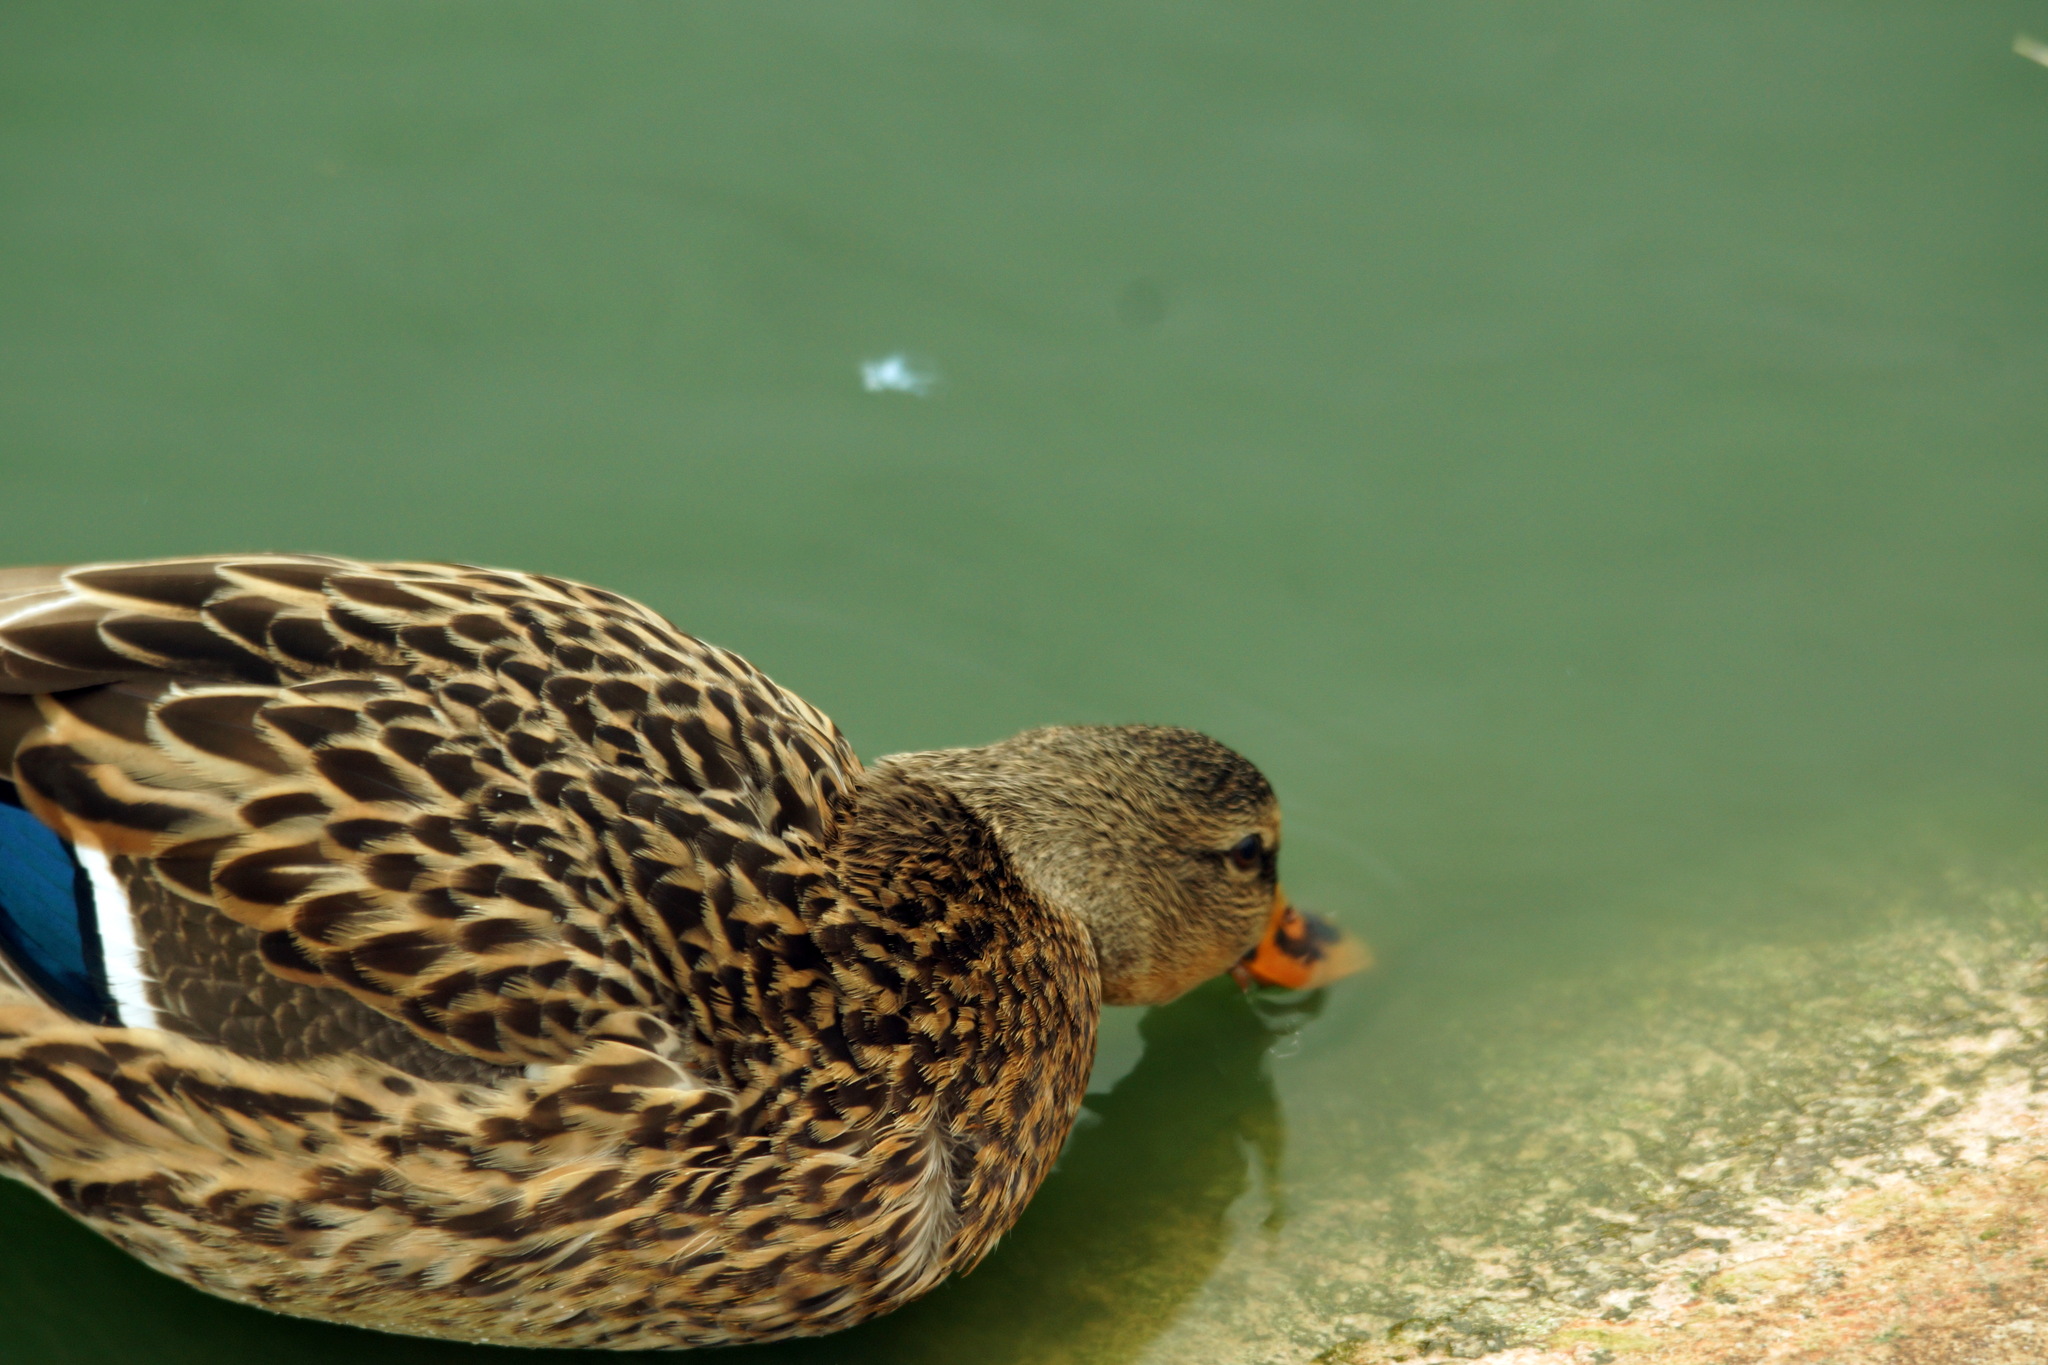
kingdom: Animalia
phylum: Chordata
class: Aves
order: Anseriformes
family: Anatidae
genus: Anas
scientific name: Anas platyrhynchos
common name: Mallard
